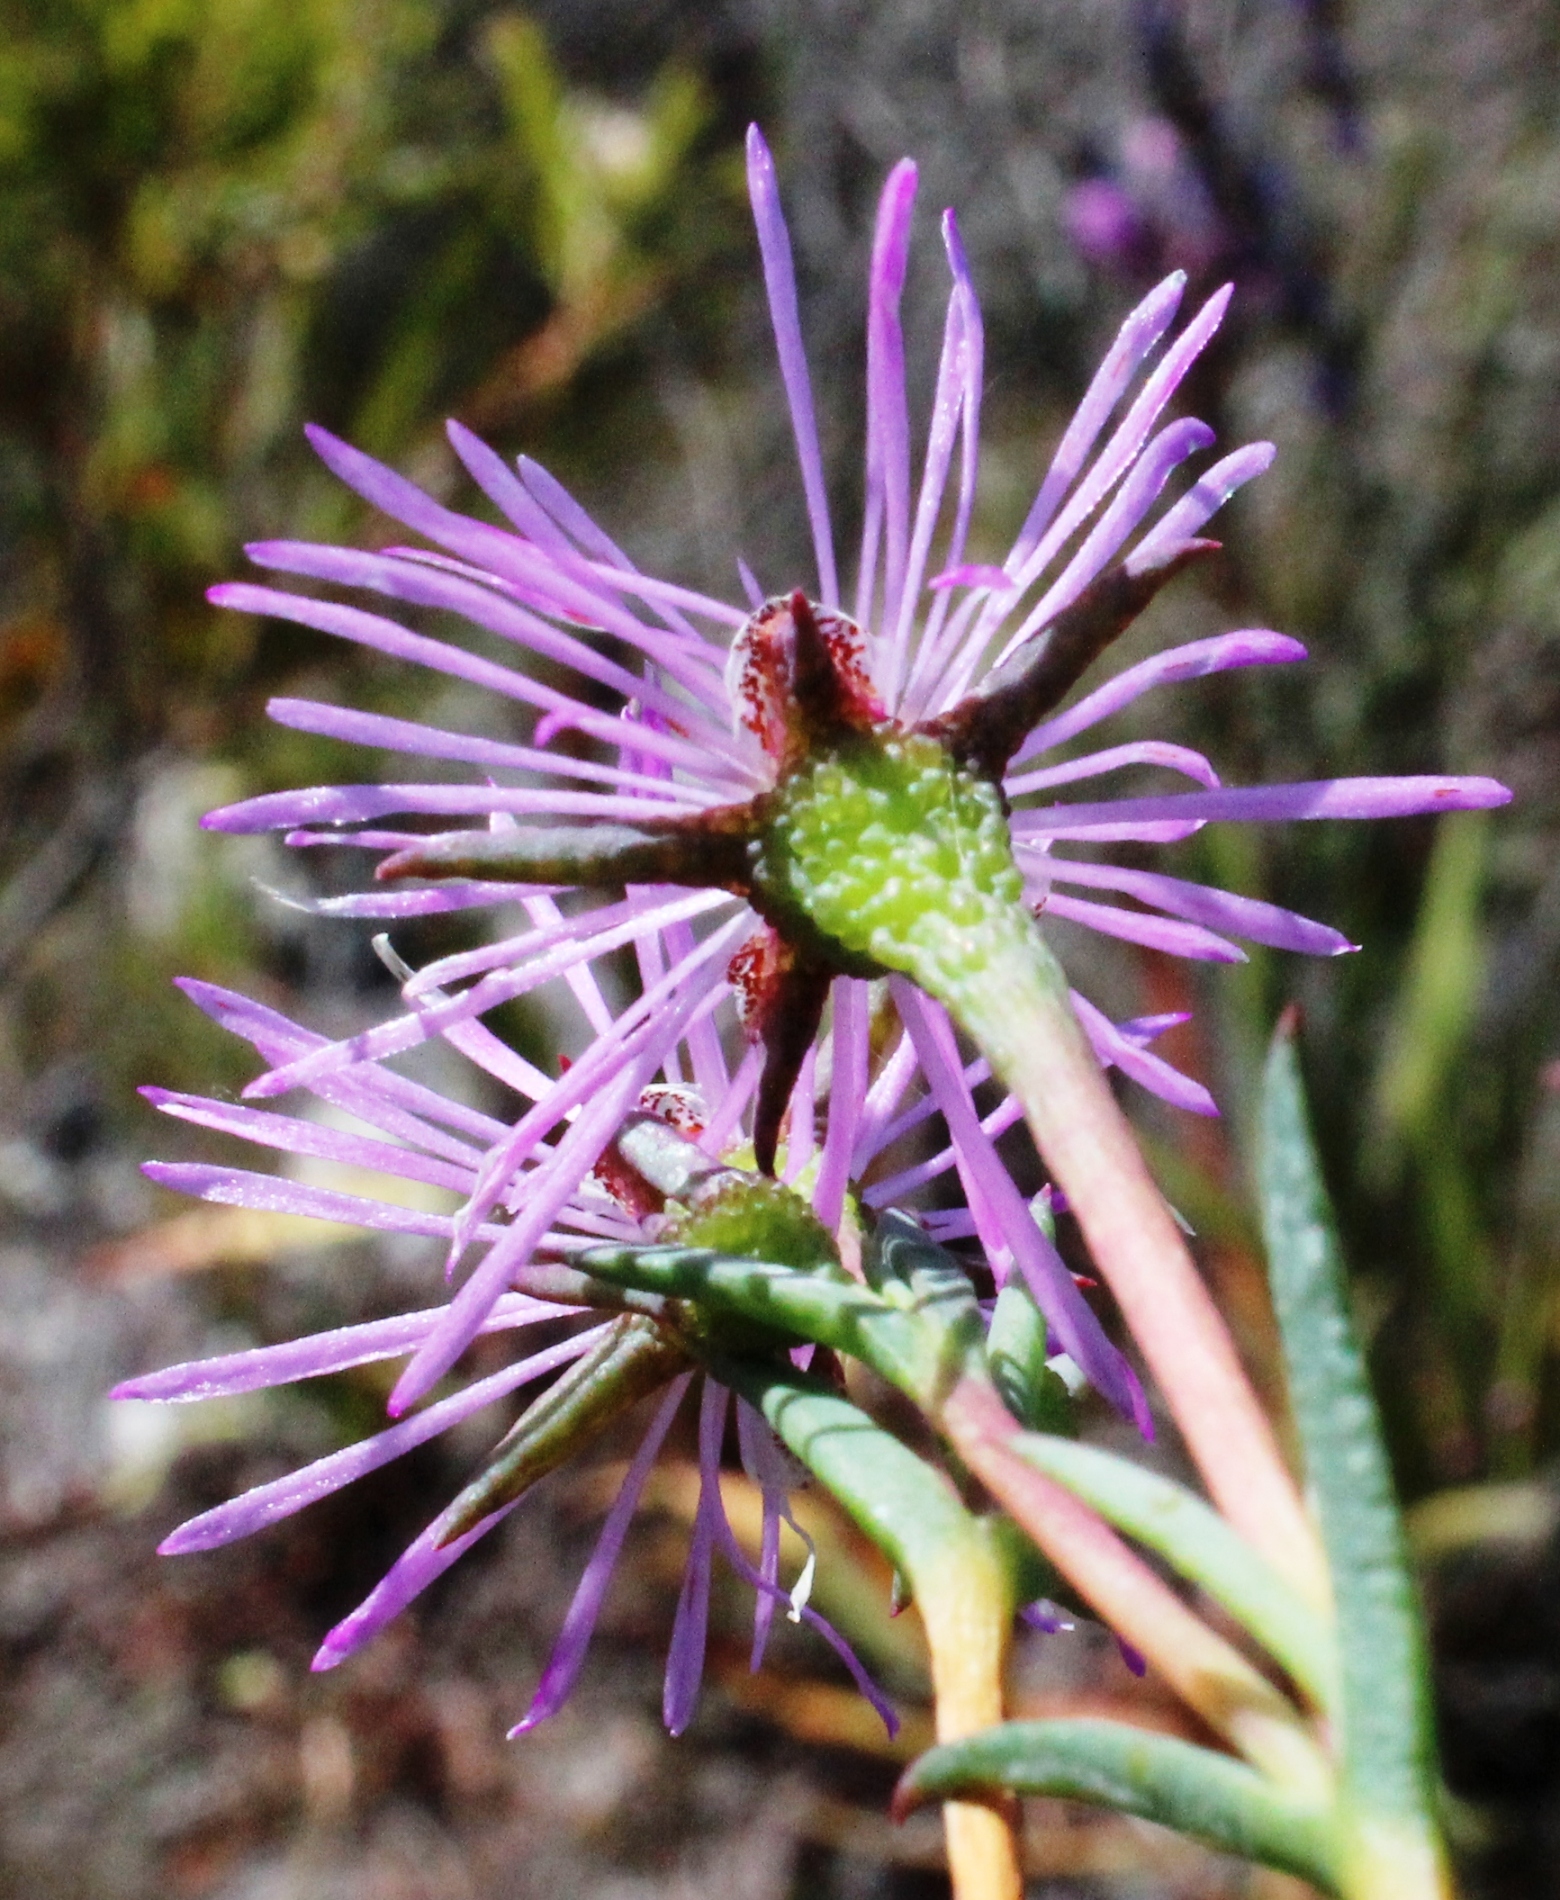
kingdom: Plantae
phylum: Tracheophyta
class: Magnoliopsida
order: Caryophyllales
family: Aizoaceae
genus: Erepsia
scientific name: Erepsia aspera
